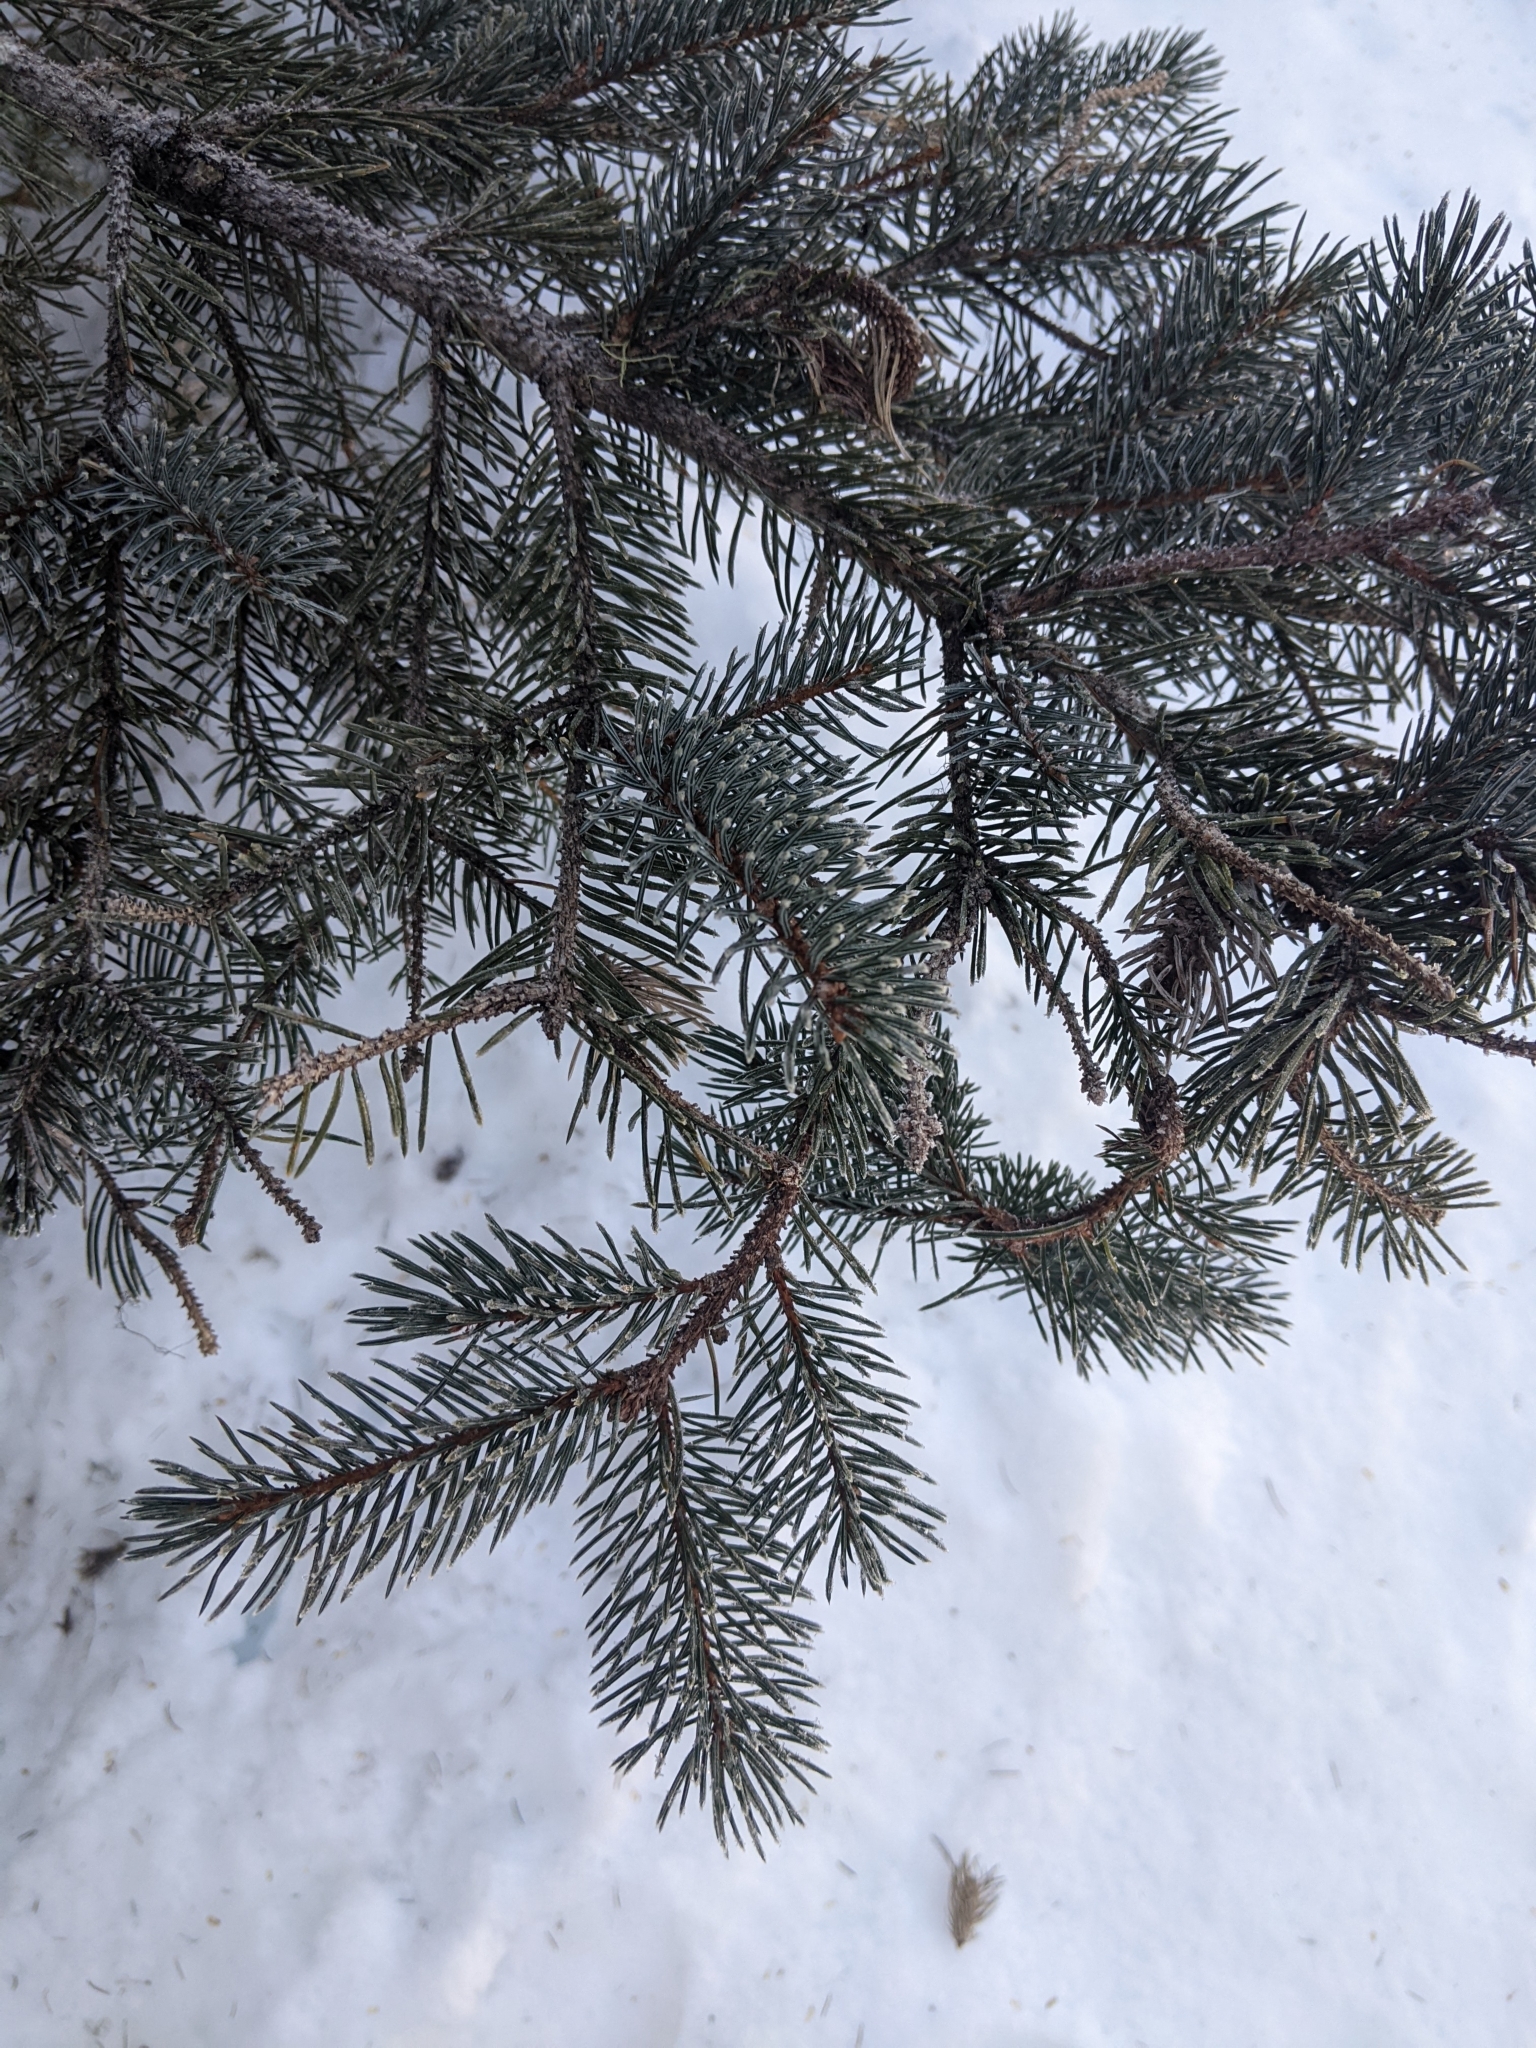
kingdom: Plantae
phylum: Tracheophyta
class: Pinopsida
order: Pinales
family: Pinaceae
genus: Picea
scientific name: Picea engelmannii
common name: Engelmann spruce
